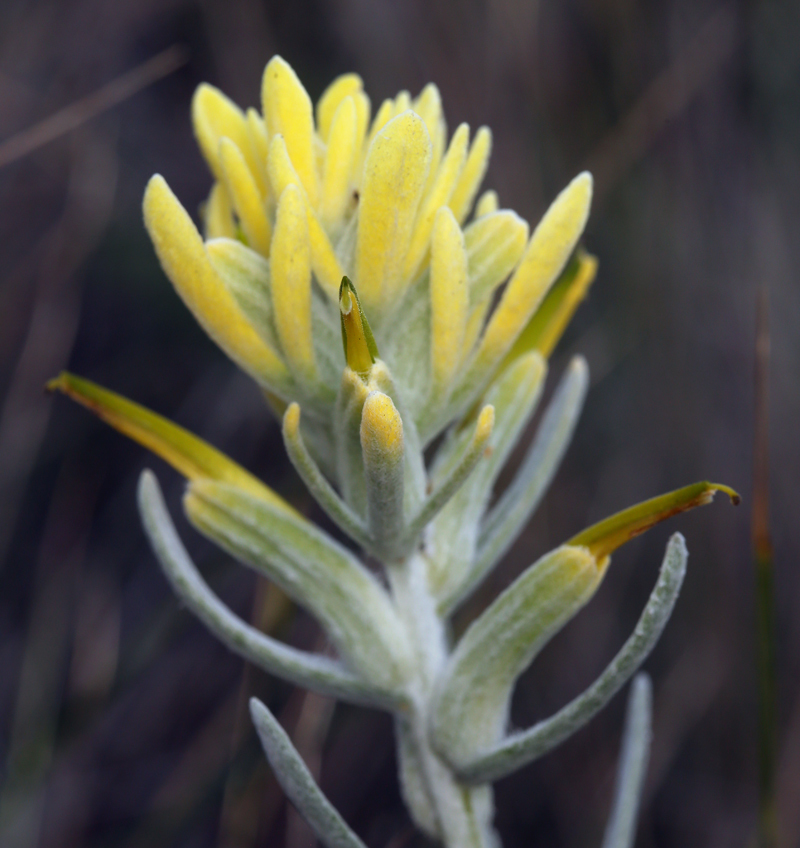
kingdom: Plantae
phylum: Tracheophyta
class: Magnoliopsida
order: Lamiales
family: Orobanchaceae
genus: Castilleja
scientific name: Castilleja hololeuca
